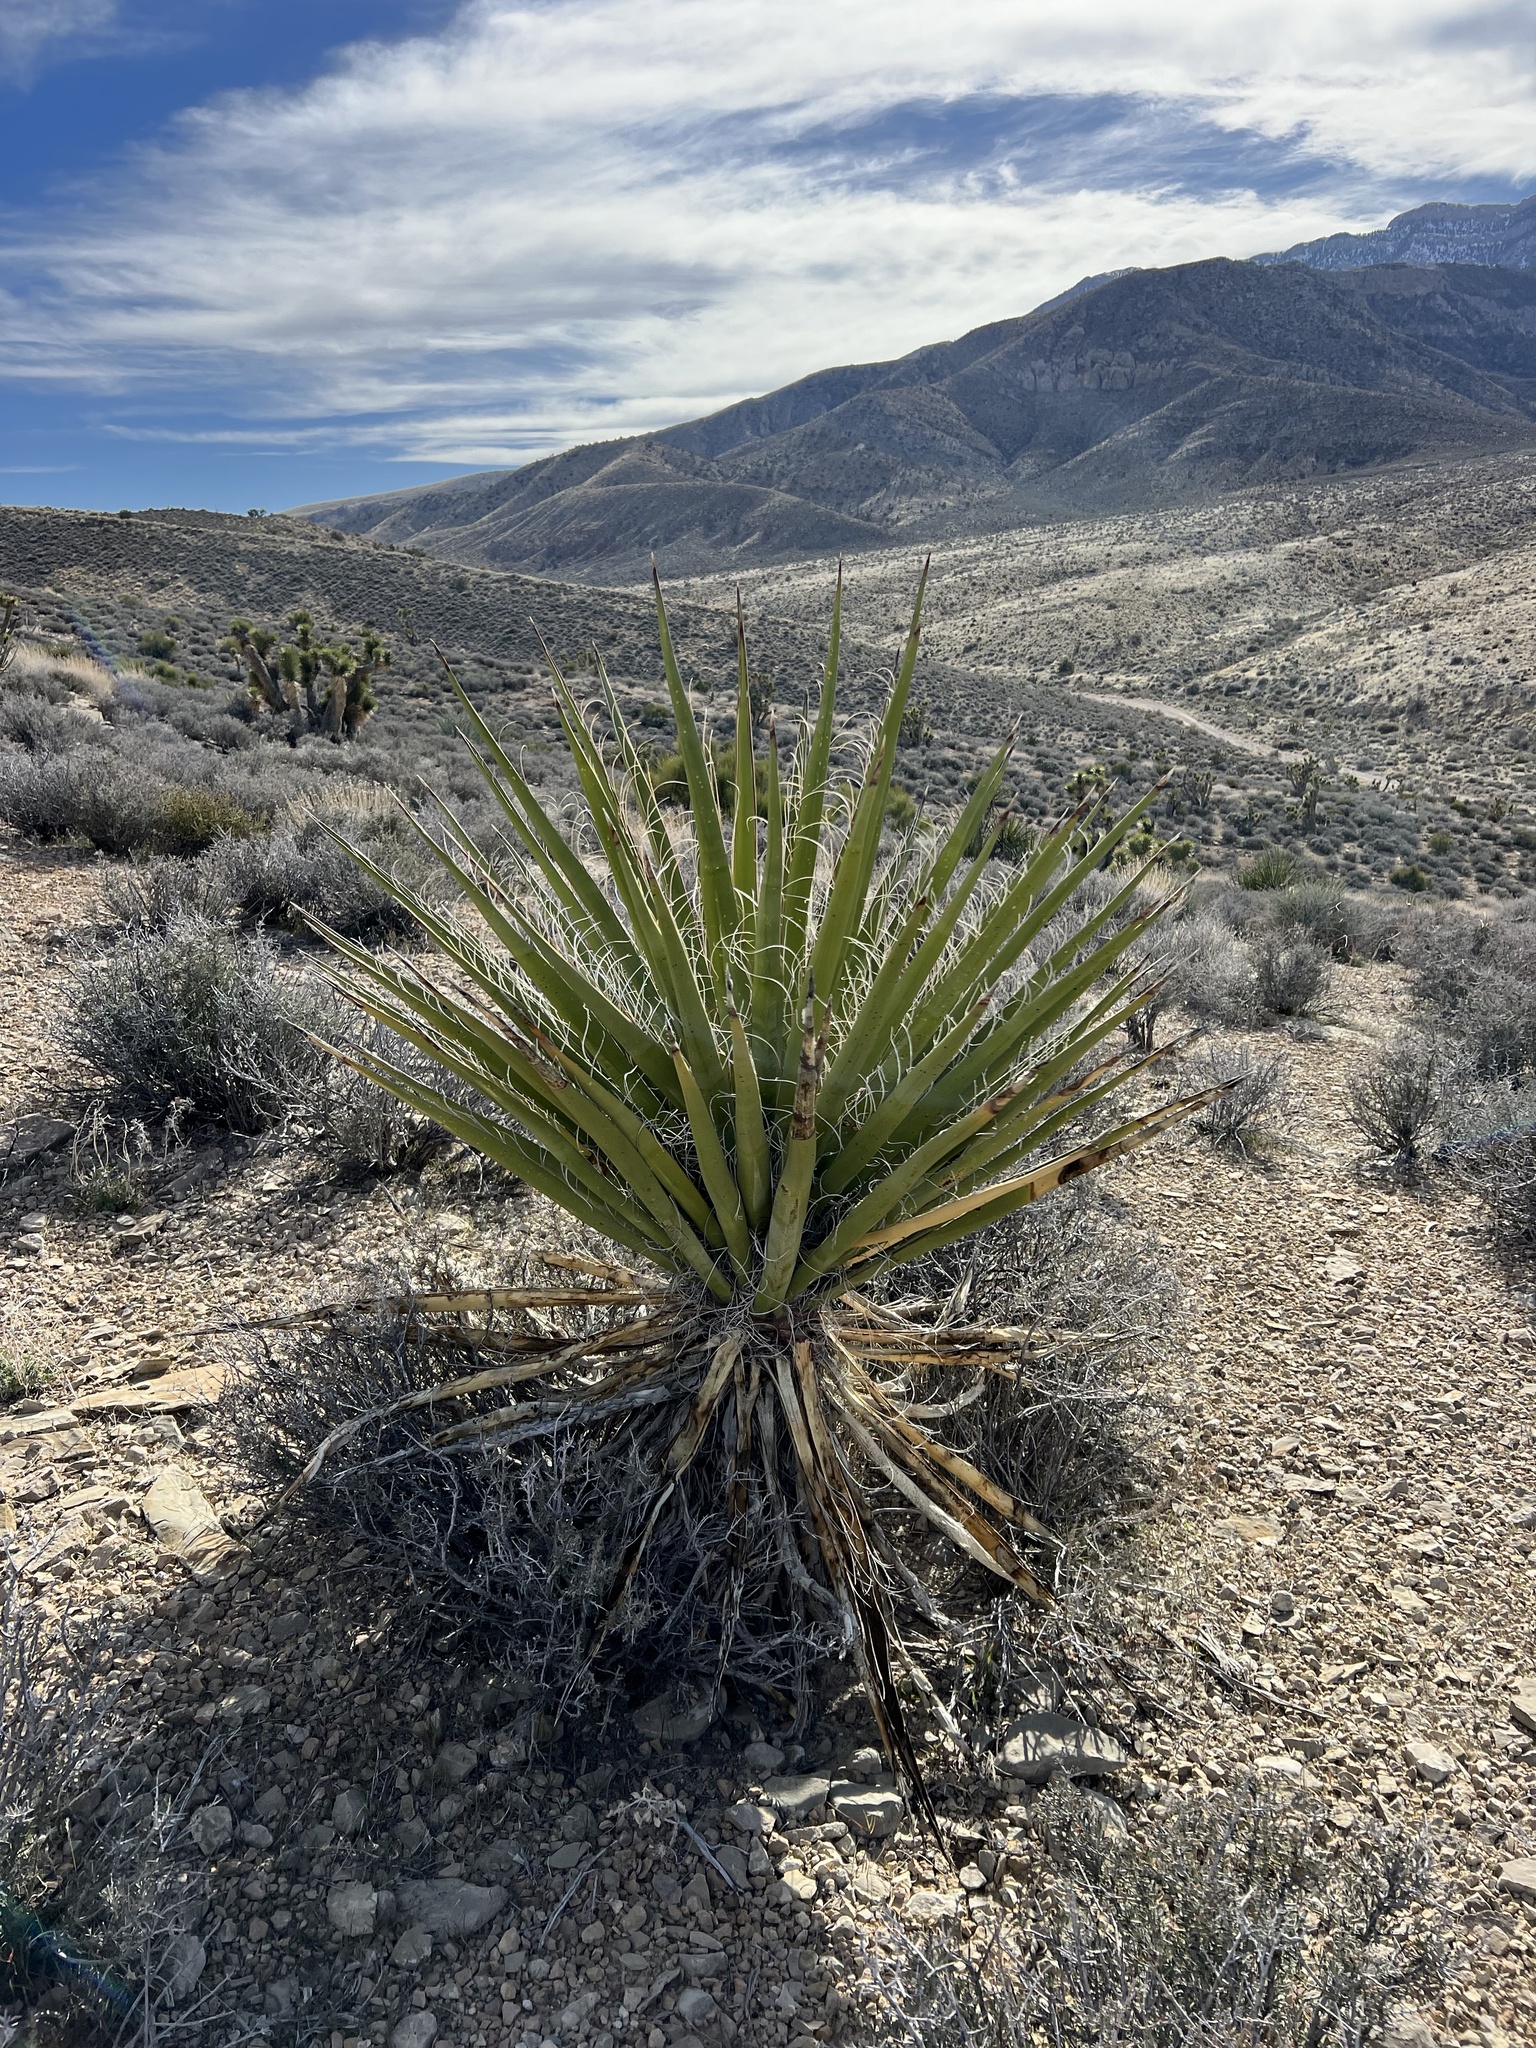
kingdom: Plantae
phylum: Tracheophyta
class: Liliopsida
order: Asparagales
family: Asparagaceae
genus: Yucca
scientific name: Yucca schidigera
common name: Mojave yucca
